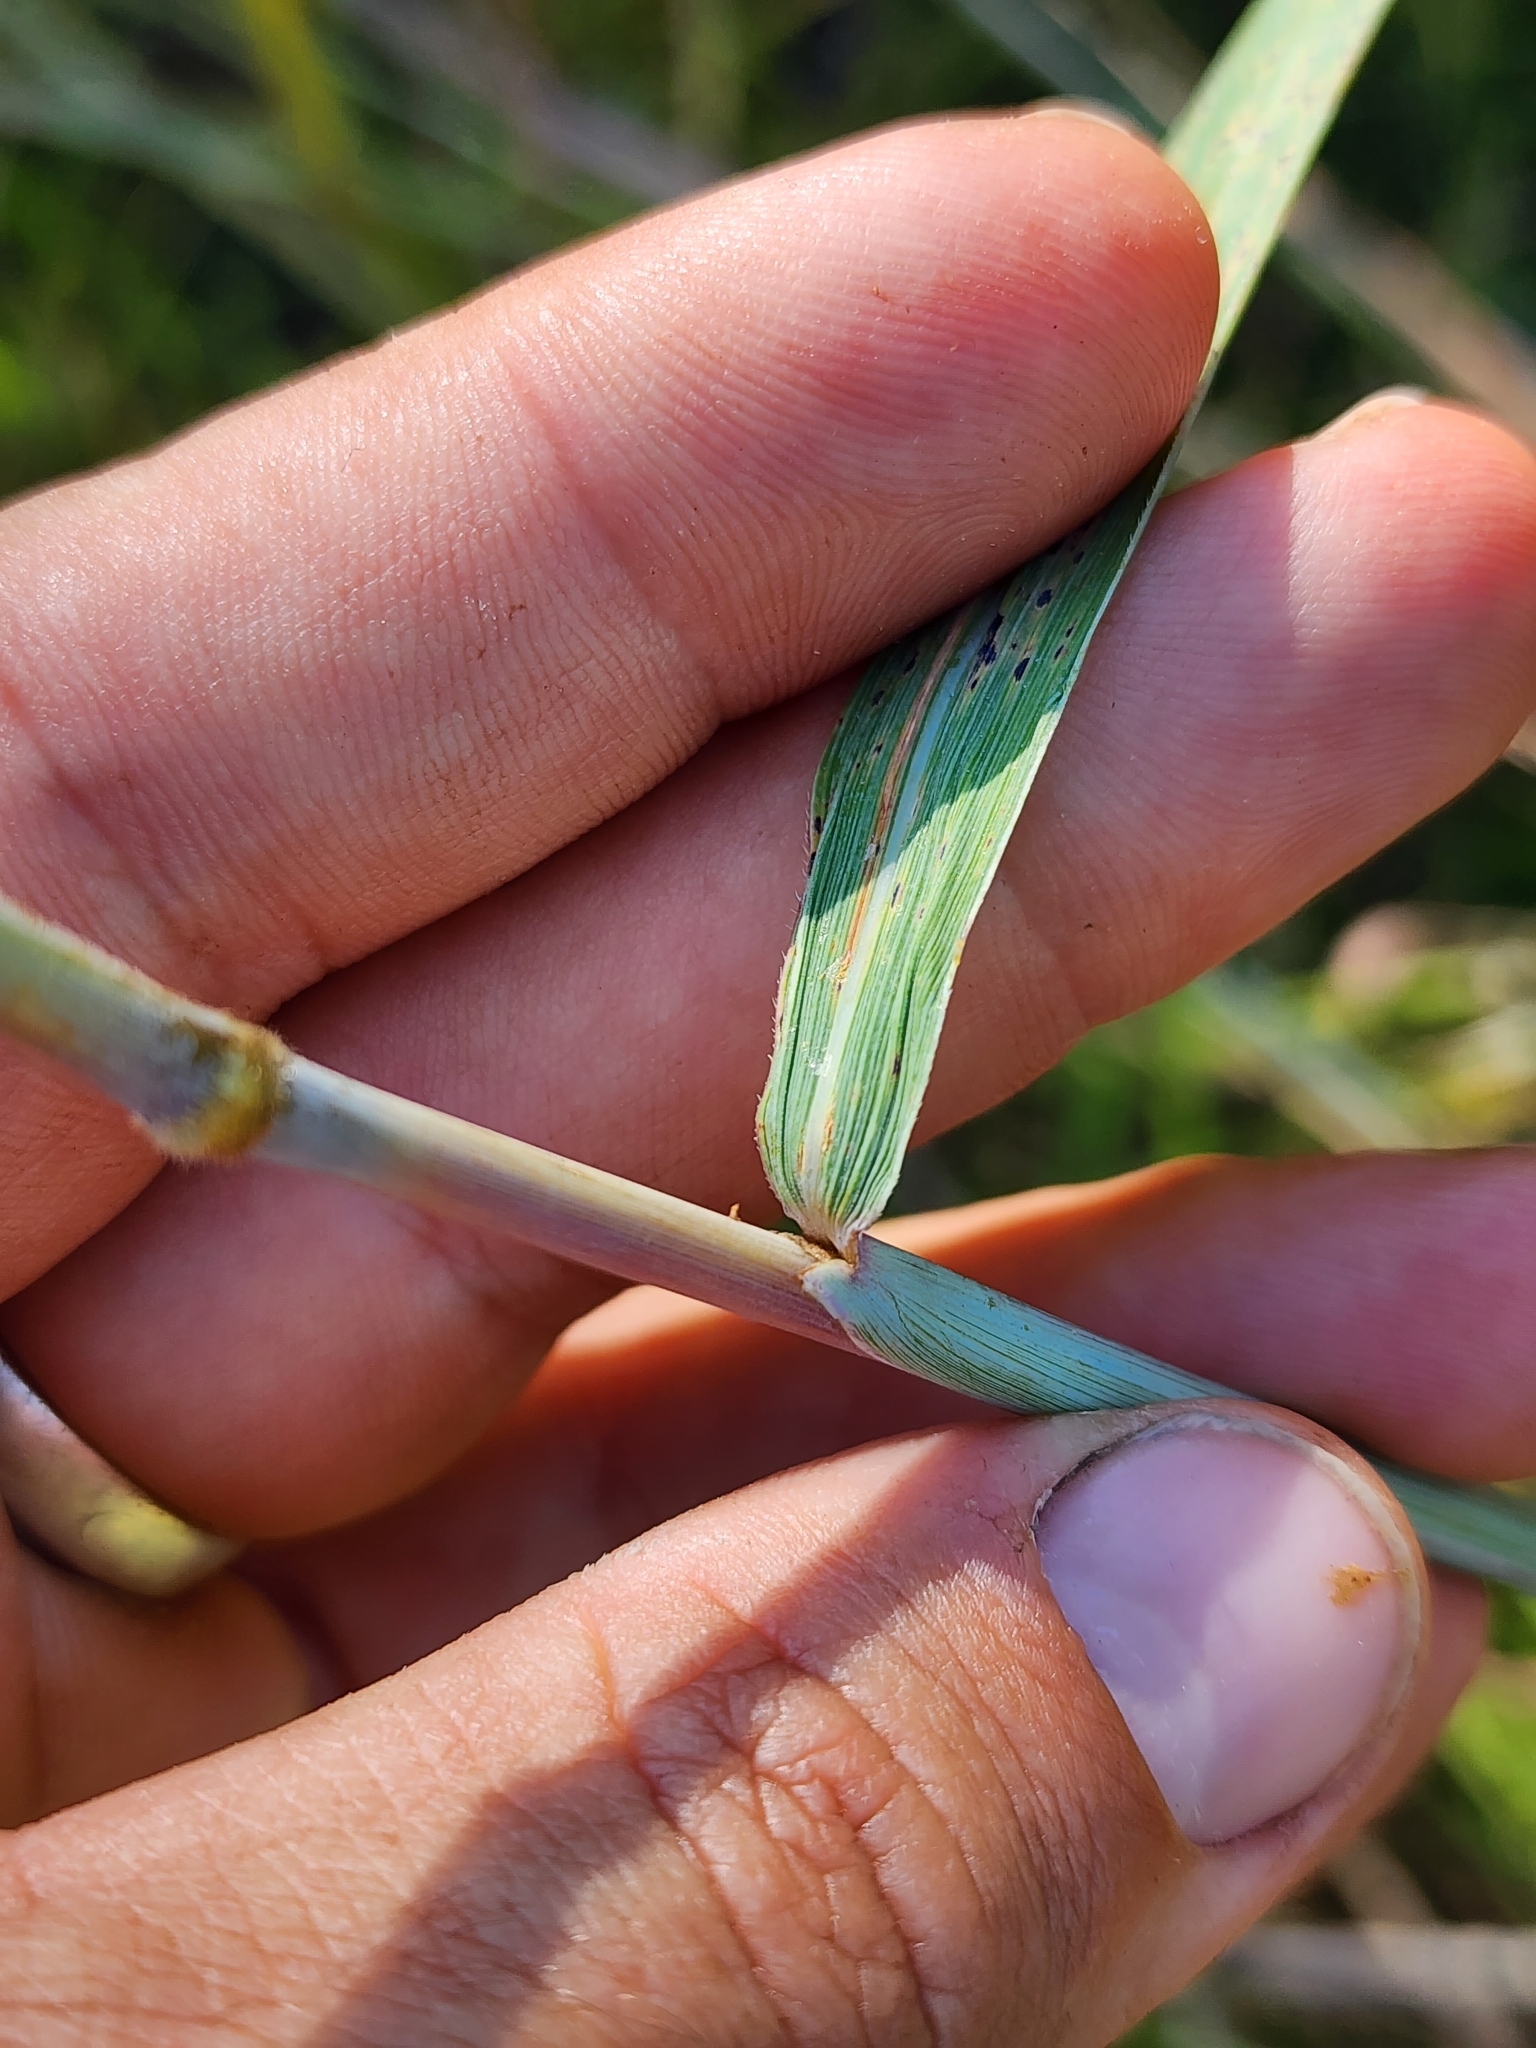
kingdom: Plantae
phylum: Tracheophyta
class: Liliopsida
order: Poales
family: Poaceae
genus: Sorghastrum
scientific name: Sorghastrum nutans
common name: Indian grass
